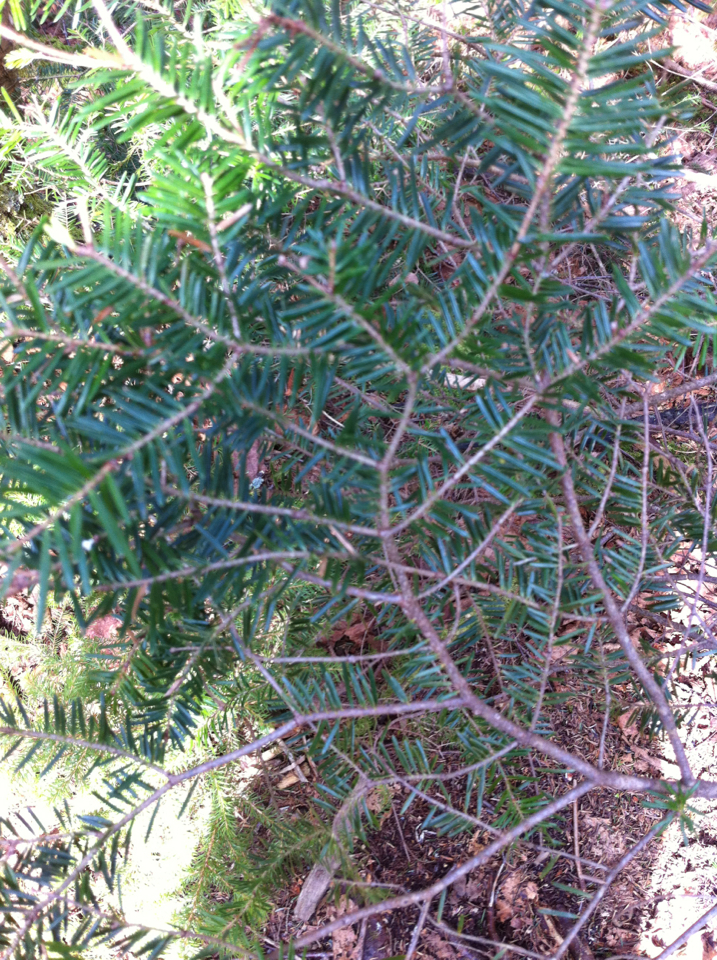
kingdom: Plantae
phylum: Tracheophyta
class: Pinopsida
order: Pinales
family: Pinaceae
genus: Abies
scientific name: Abies balsamea
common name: Balsam fir
